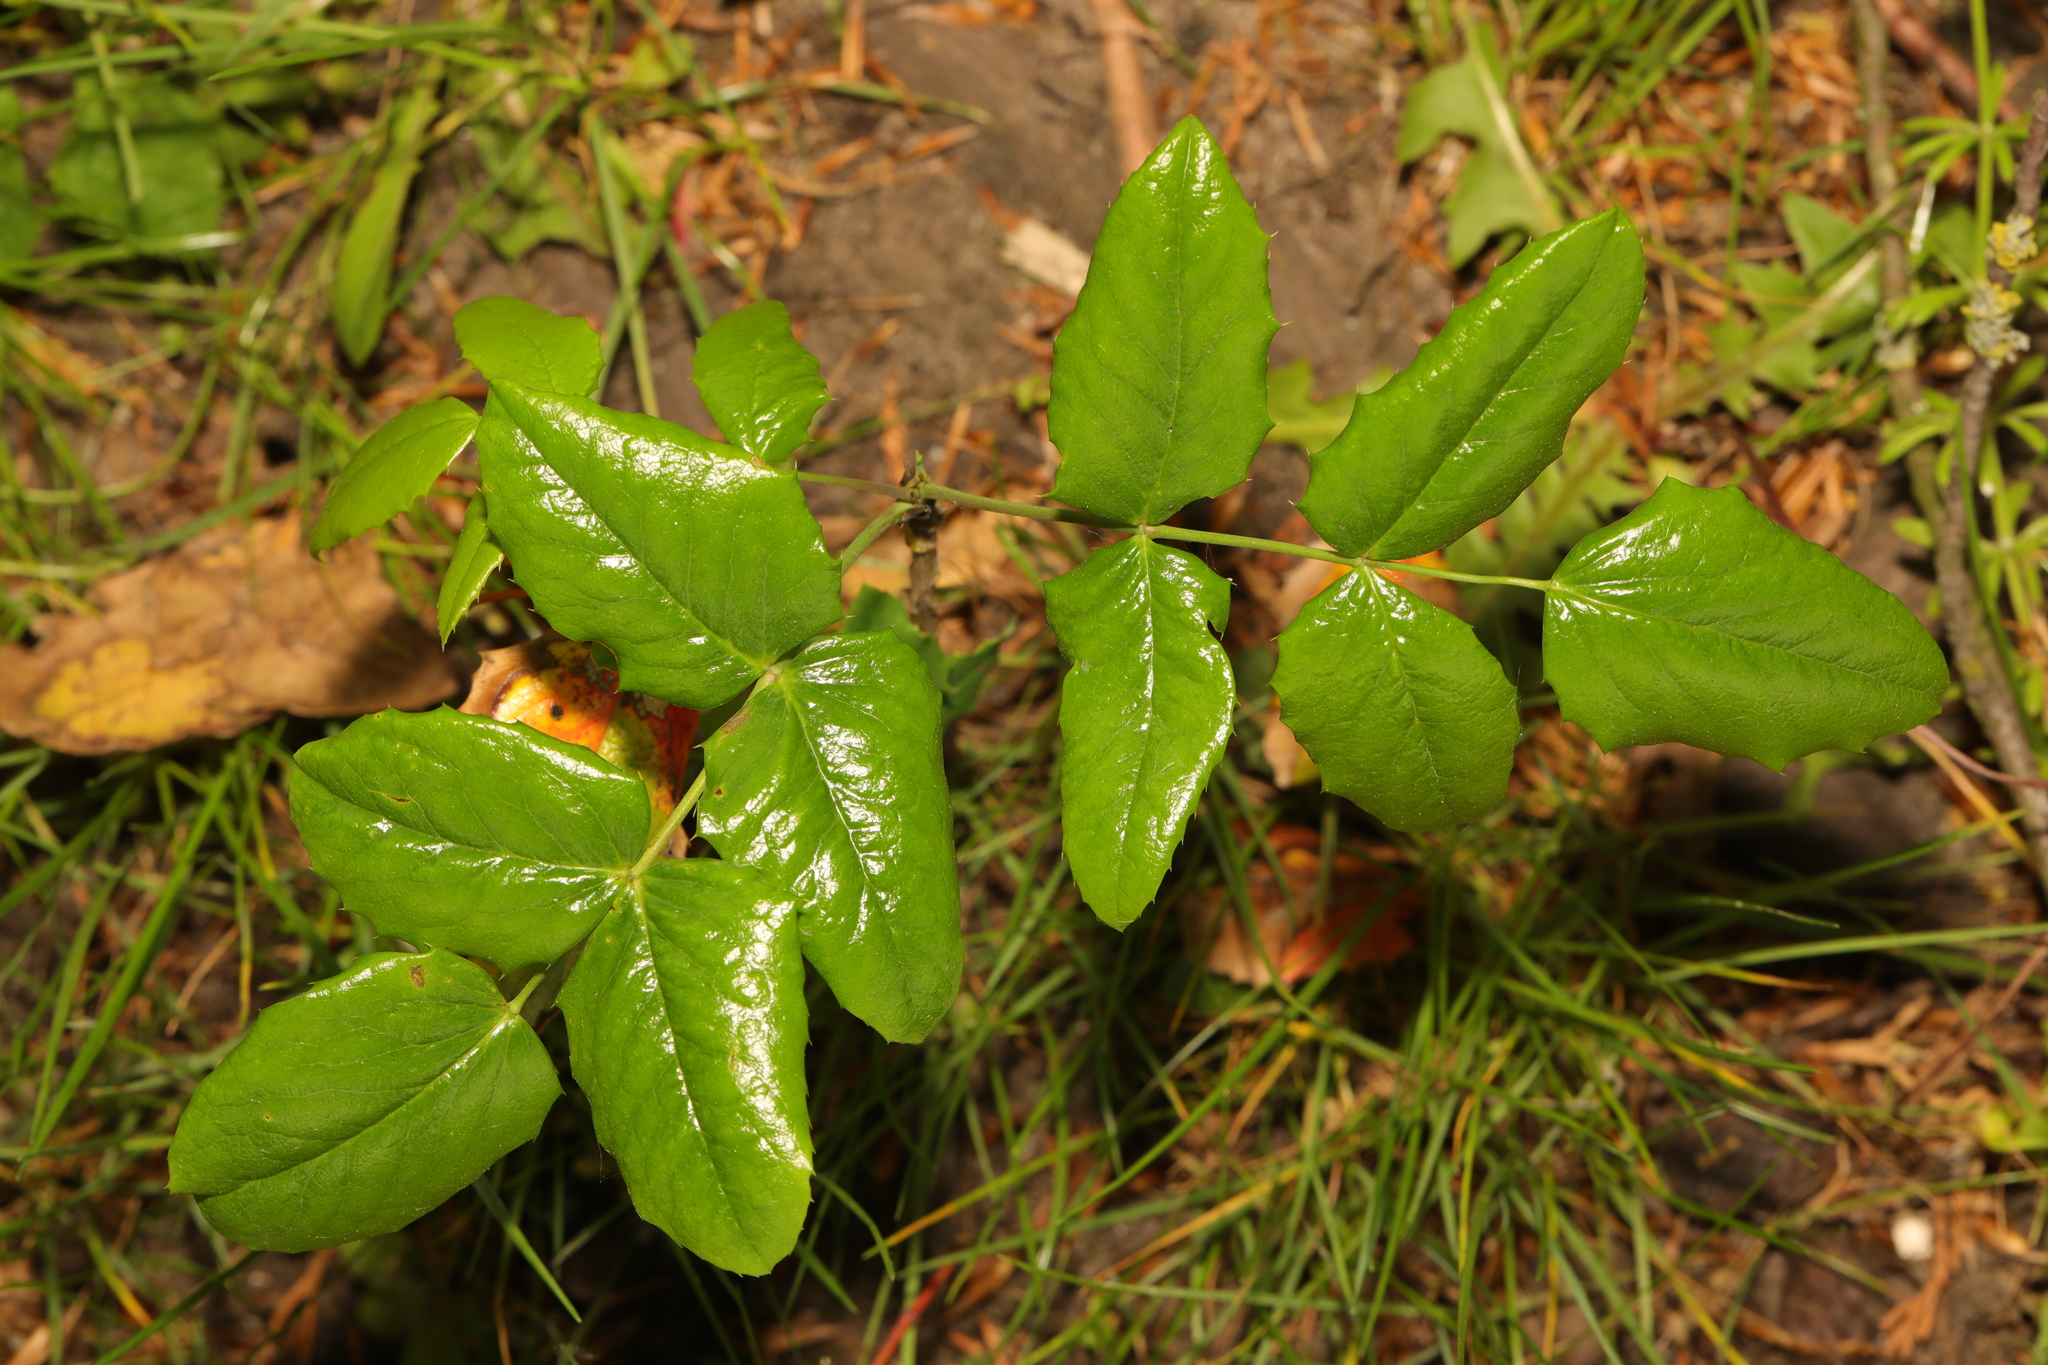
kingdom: Plantae
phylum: Tracheophyta
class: Magnoliopsida
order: Ranunculales
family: Berberidaceae
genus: Mahonia
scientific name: Mahonia aquifolium
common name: Oregon-grape
